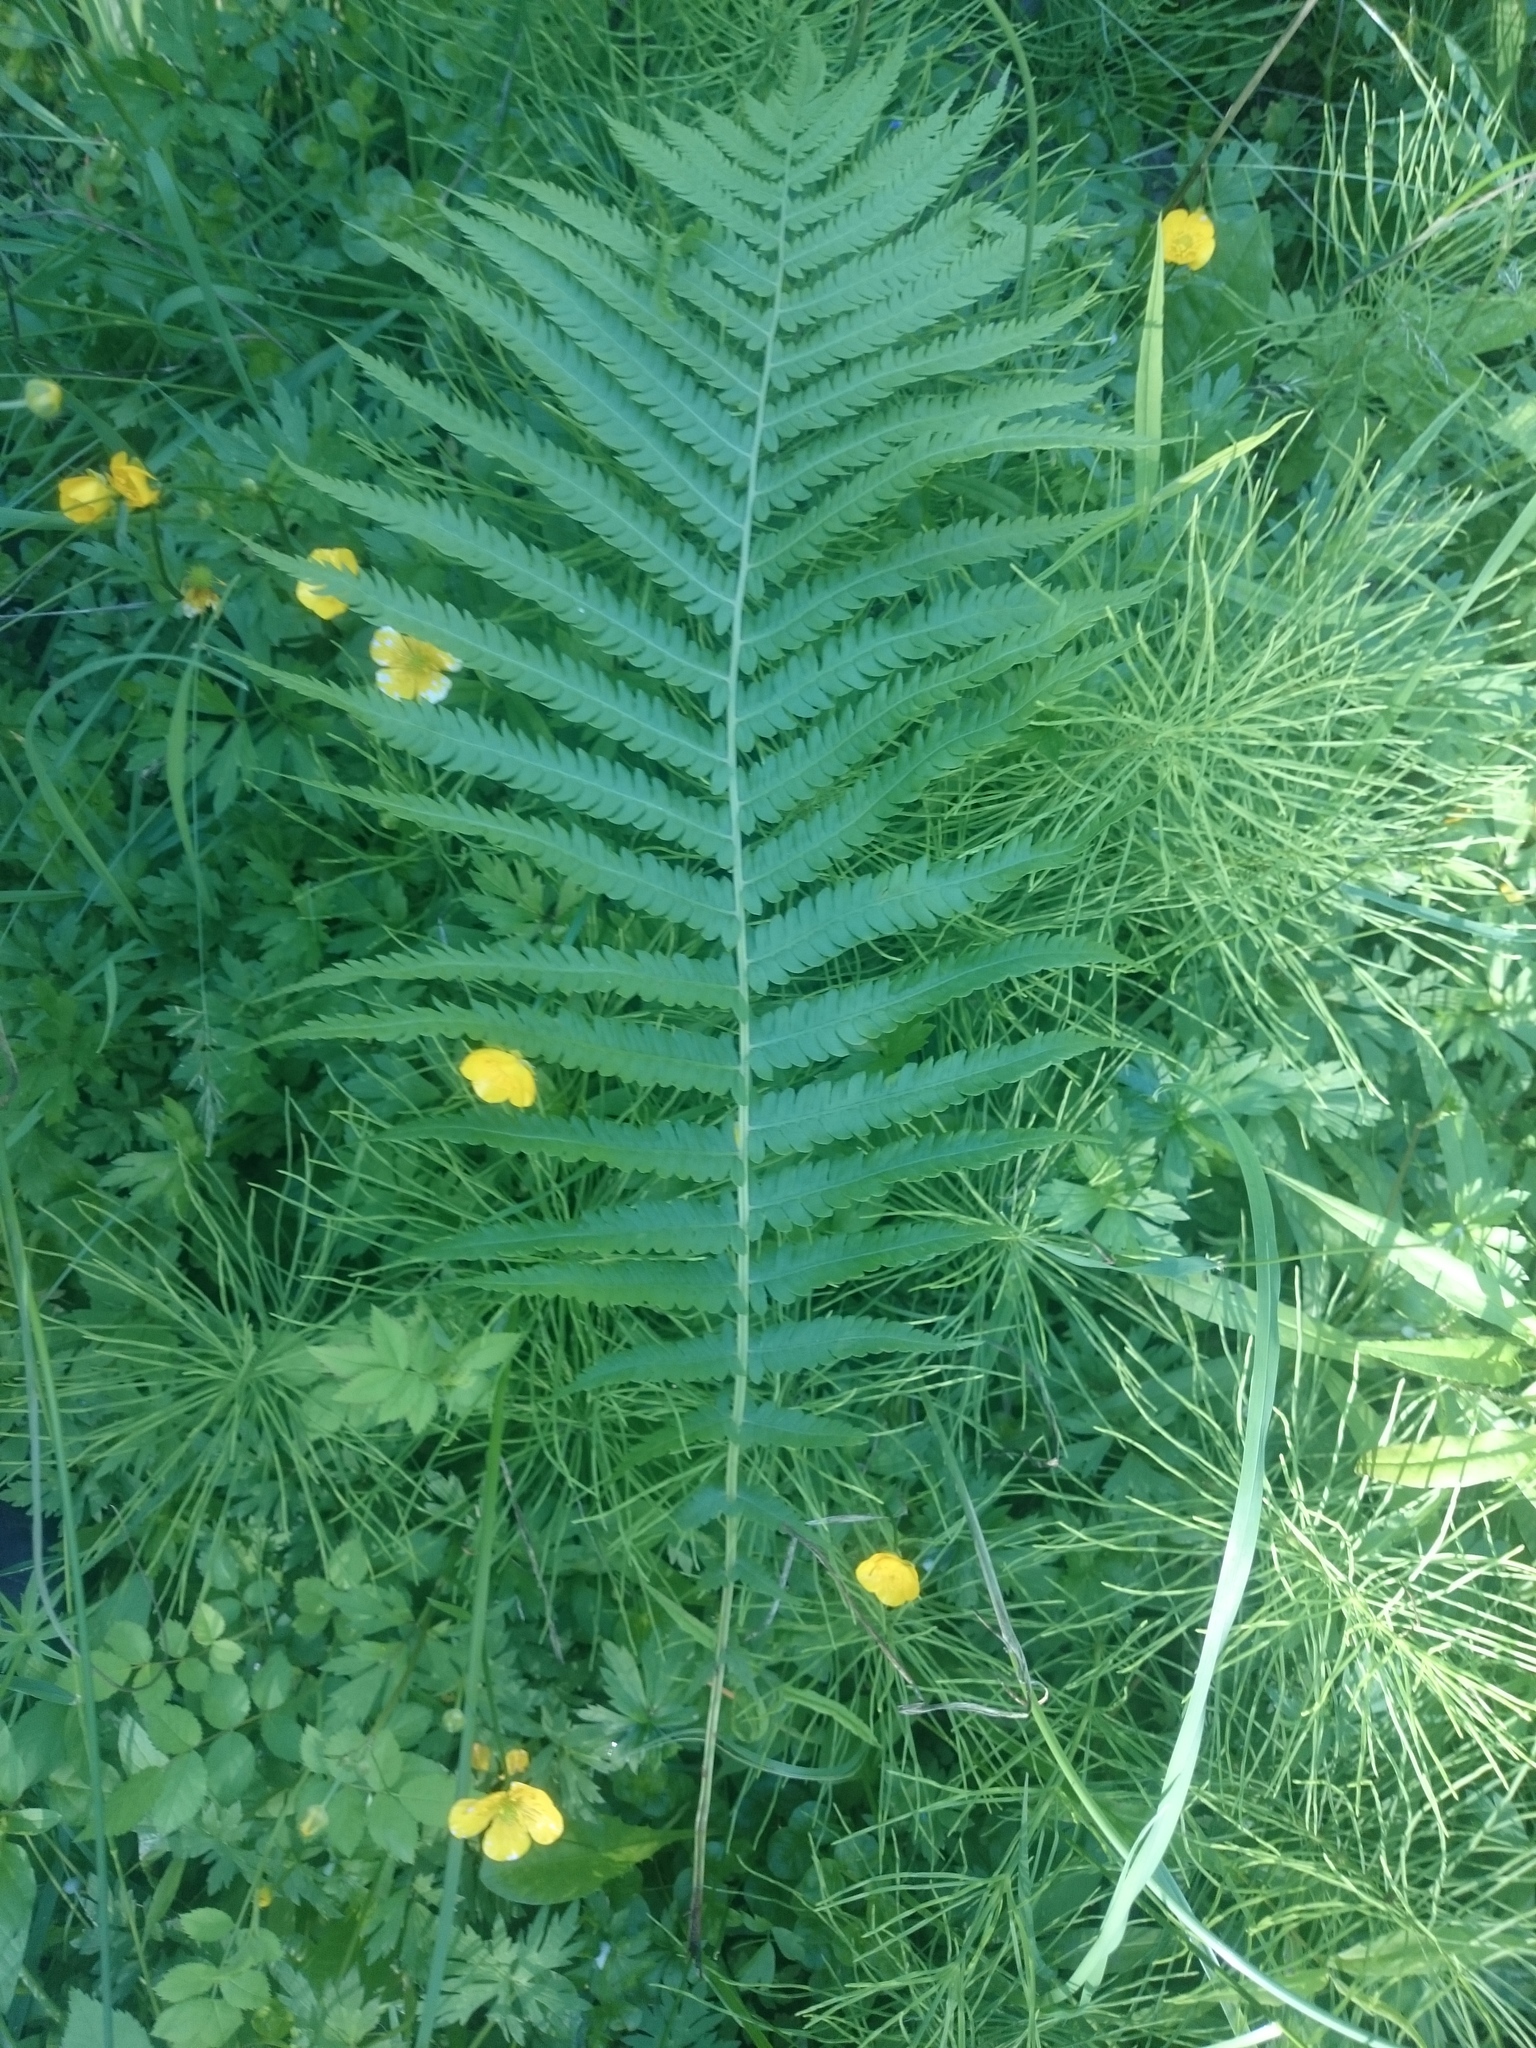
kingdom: Plantae
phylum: Tracheophyta
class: Polypodiopsida
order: Polypodiales
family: Onocleaceae
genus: Matteuccia
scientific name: Matteuccia struthiopteris
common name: Ostrich fern
